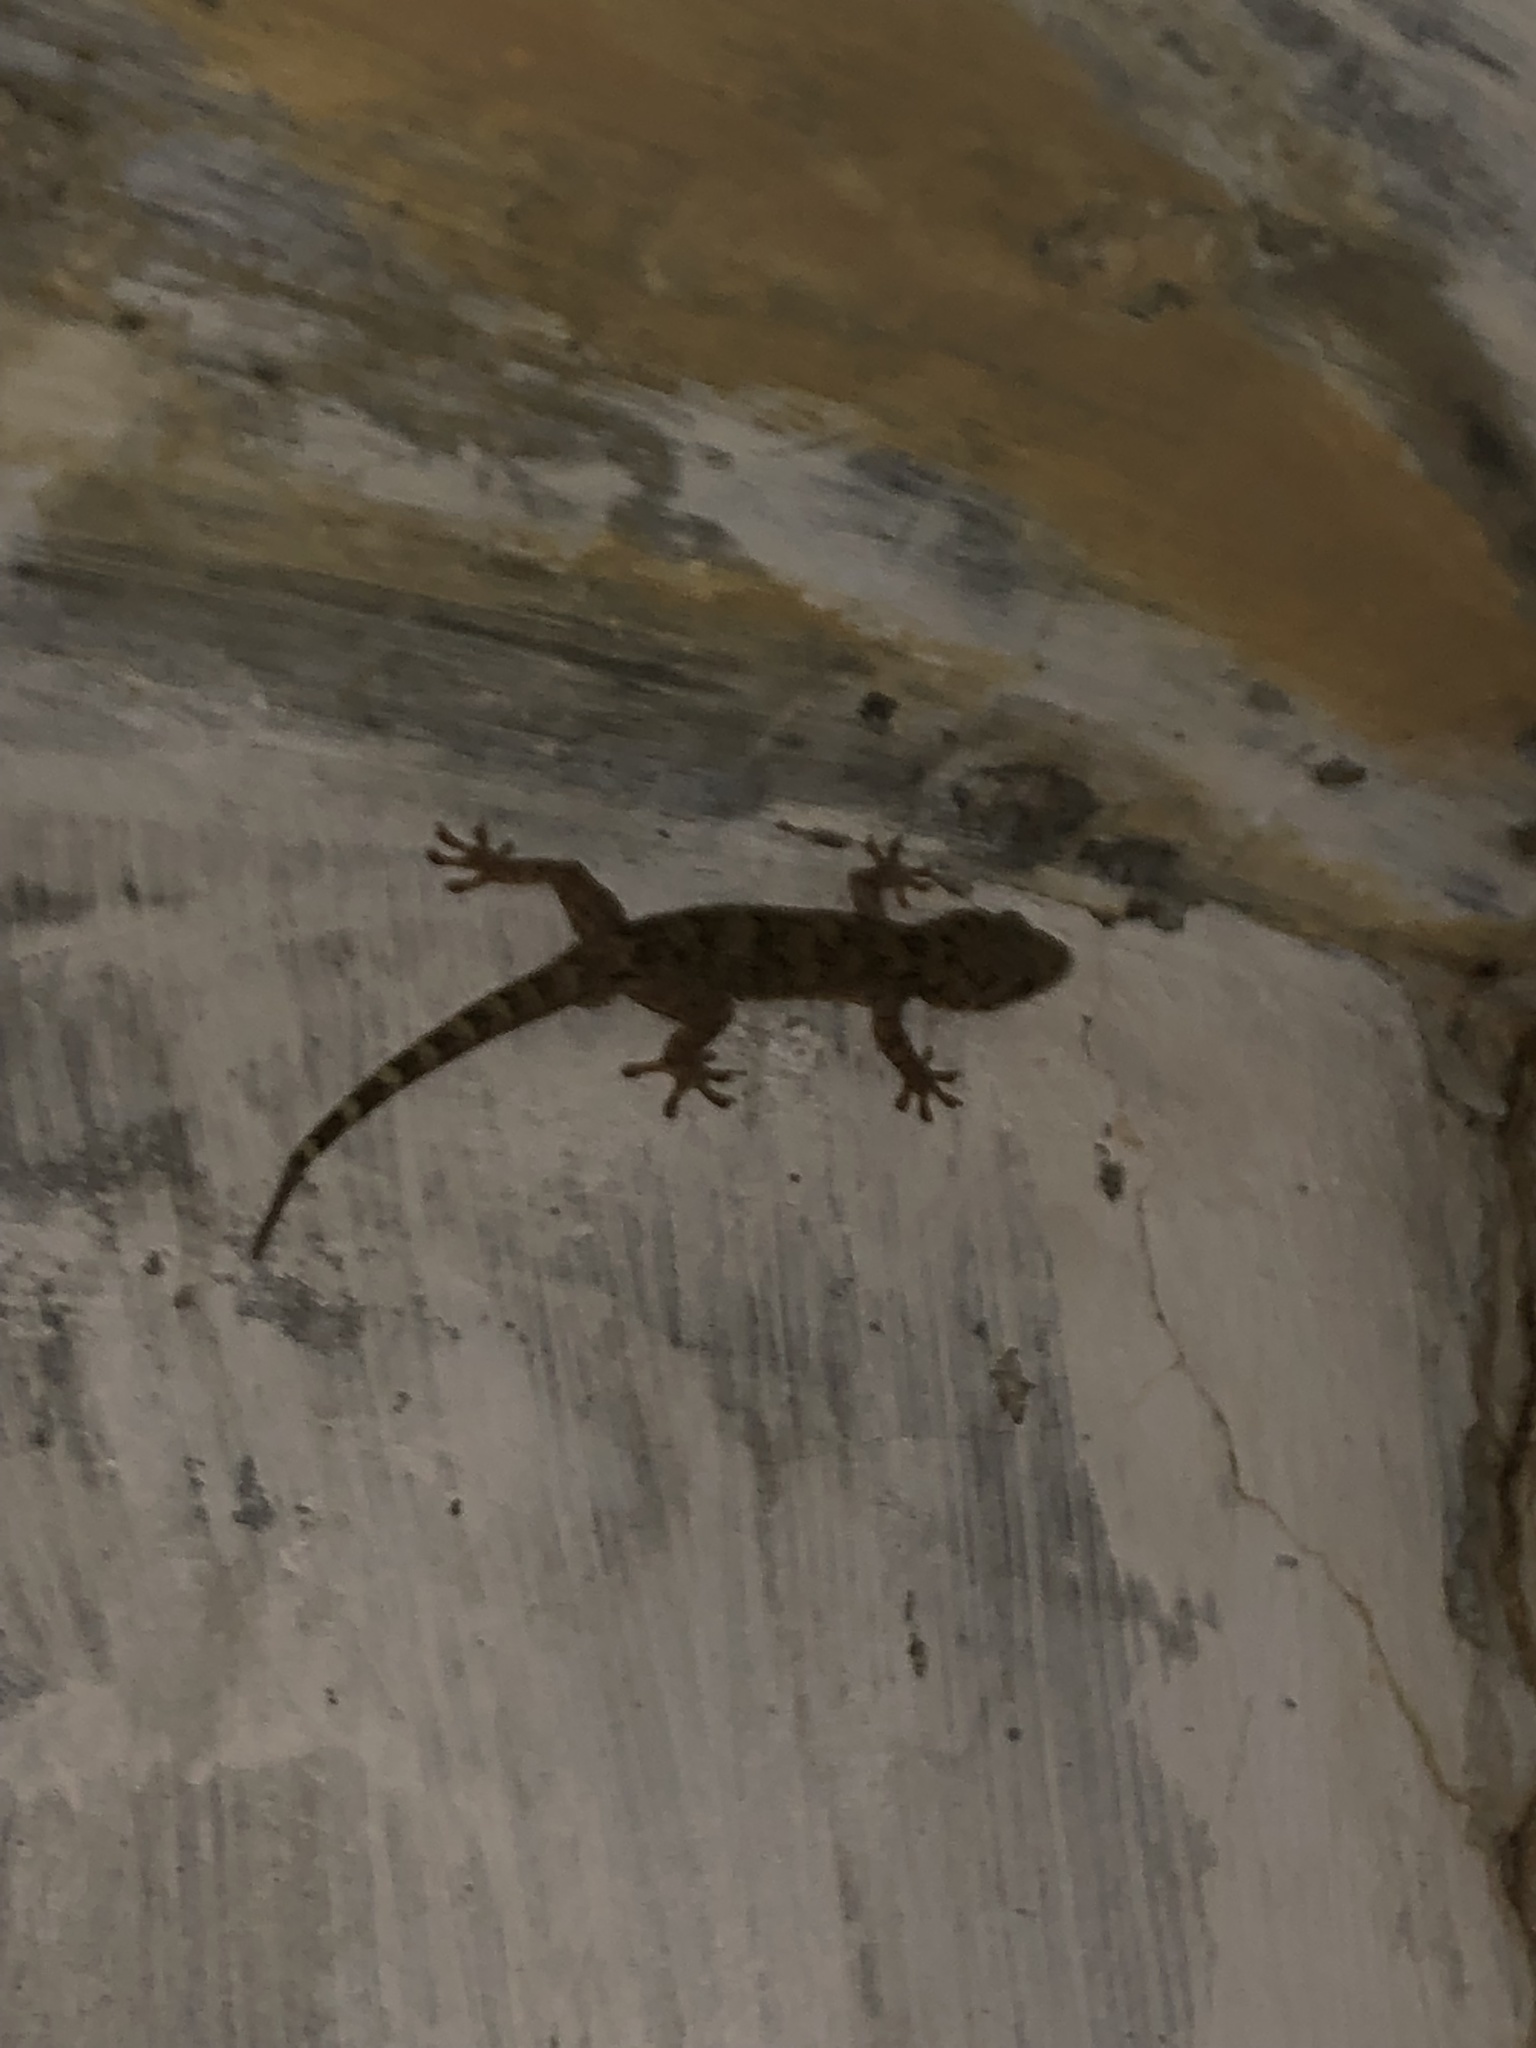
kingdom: Animalia
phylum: Chordata
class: Squamata
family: Gekkonidae
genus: Gekko
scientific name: Gekko chinensis
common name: Gray's chinese gecko
